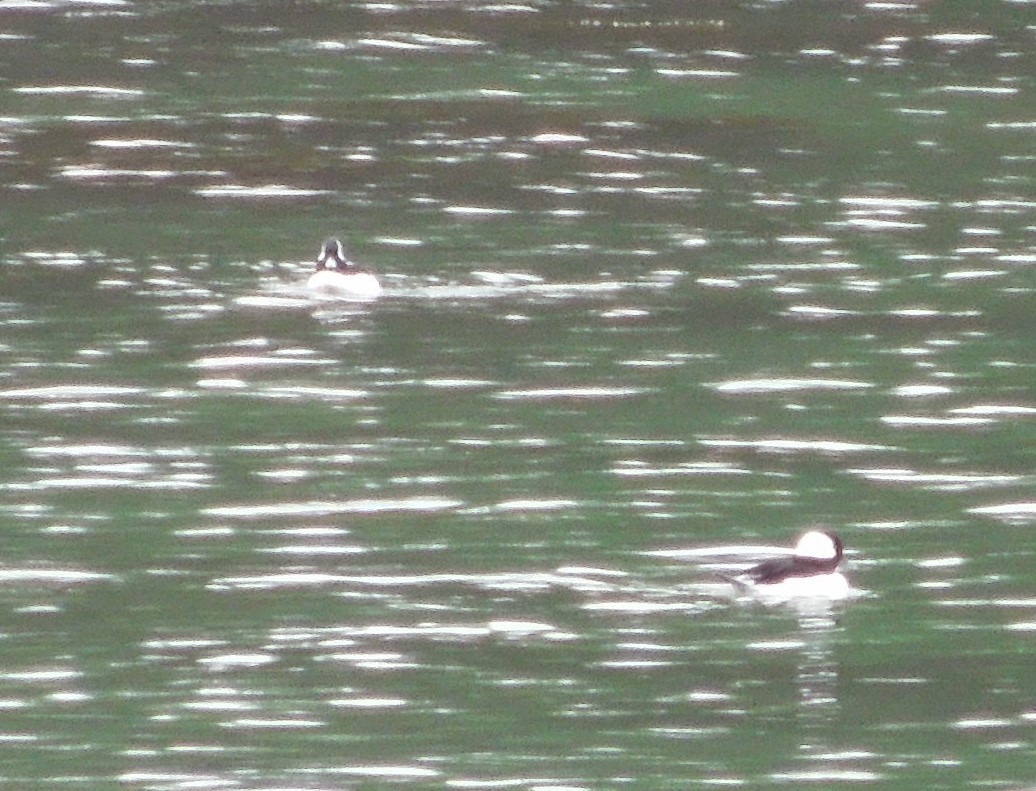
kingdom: Animalia
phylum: Chordata
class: Aves
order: Anseriformes
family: Anatidae
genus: Bucephala
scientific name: Bucephala albeola
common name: Bufflehead
